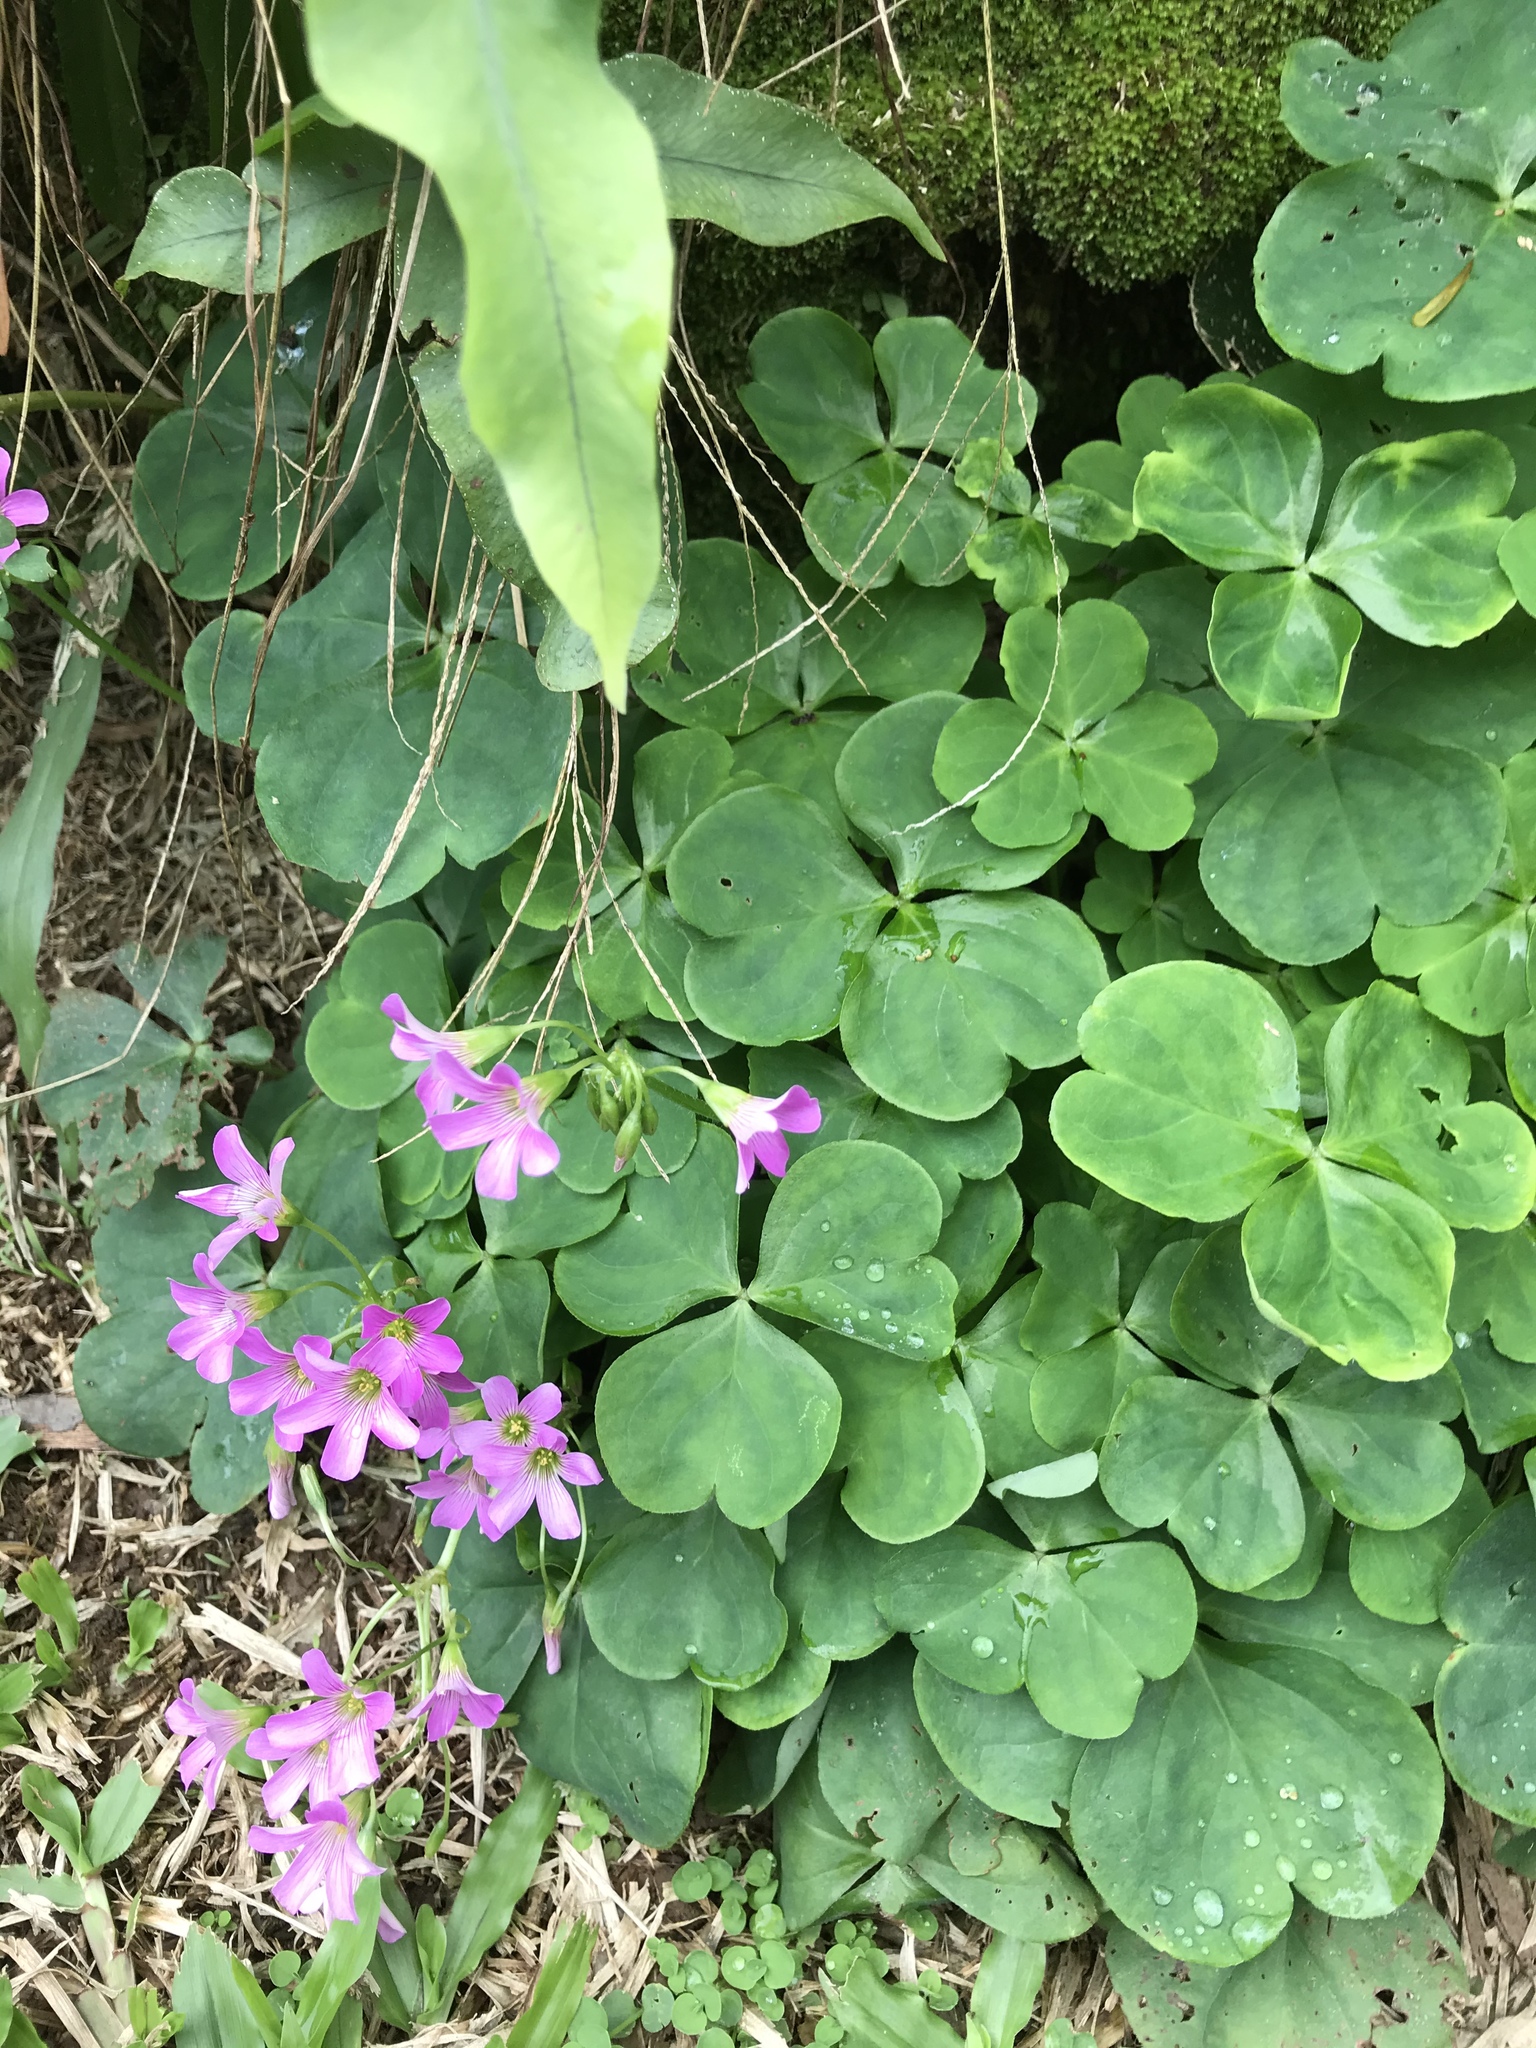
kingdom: Plantae
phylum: Tracheophyta
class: Magnoliopsida
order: Oxalidales
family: Oxalidaceae
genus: Oxalis
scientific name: Oxalis debilis
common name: Large-flowered pink-sorrel
